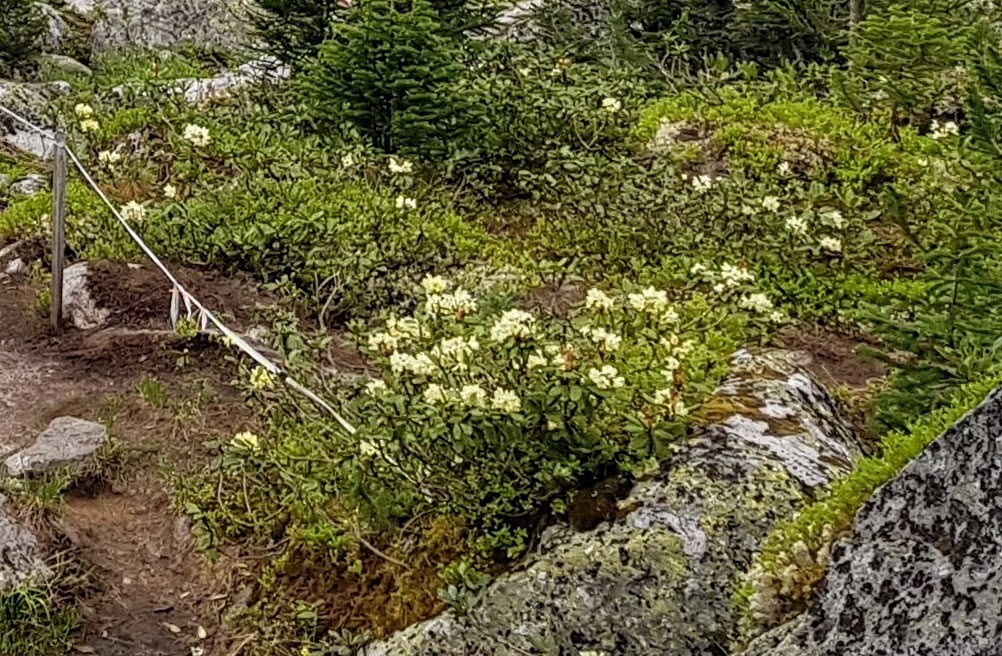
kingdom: Plantae
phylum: Tracheophyta
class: Magnoliopsida
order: Ericales
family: Ericaceae
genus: Rhododendron
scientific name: Rhododendron aureum
